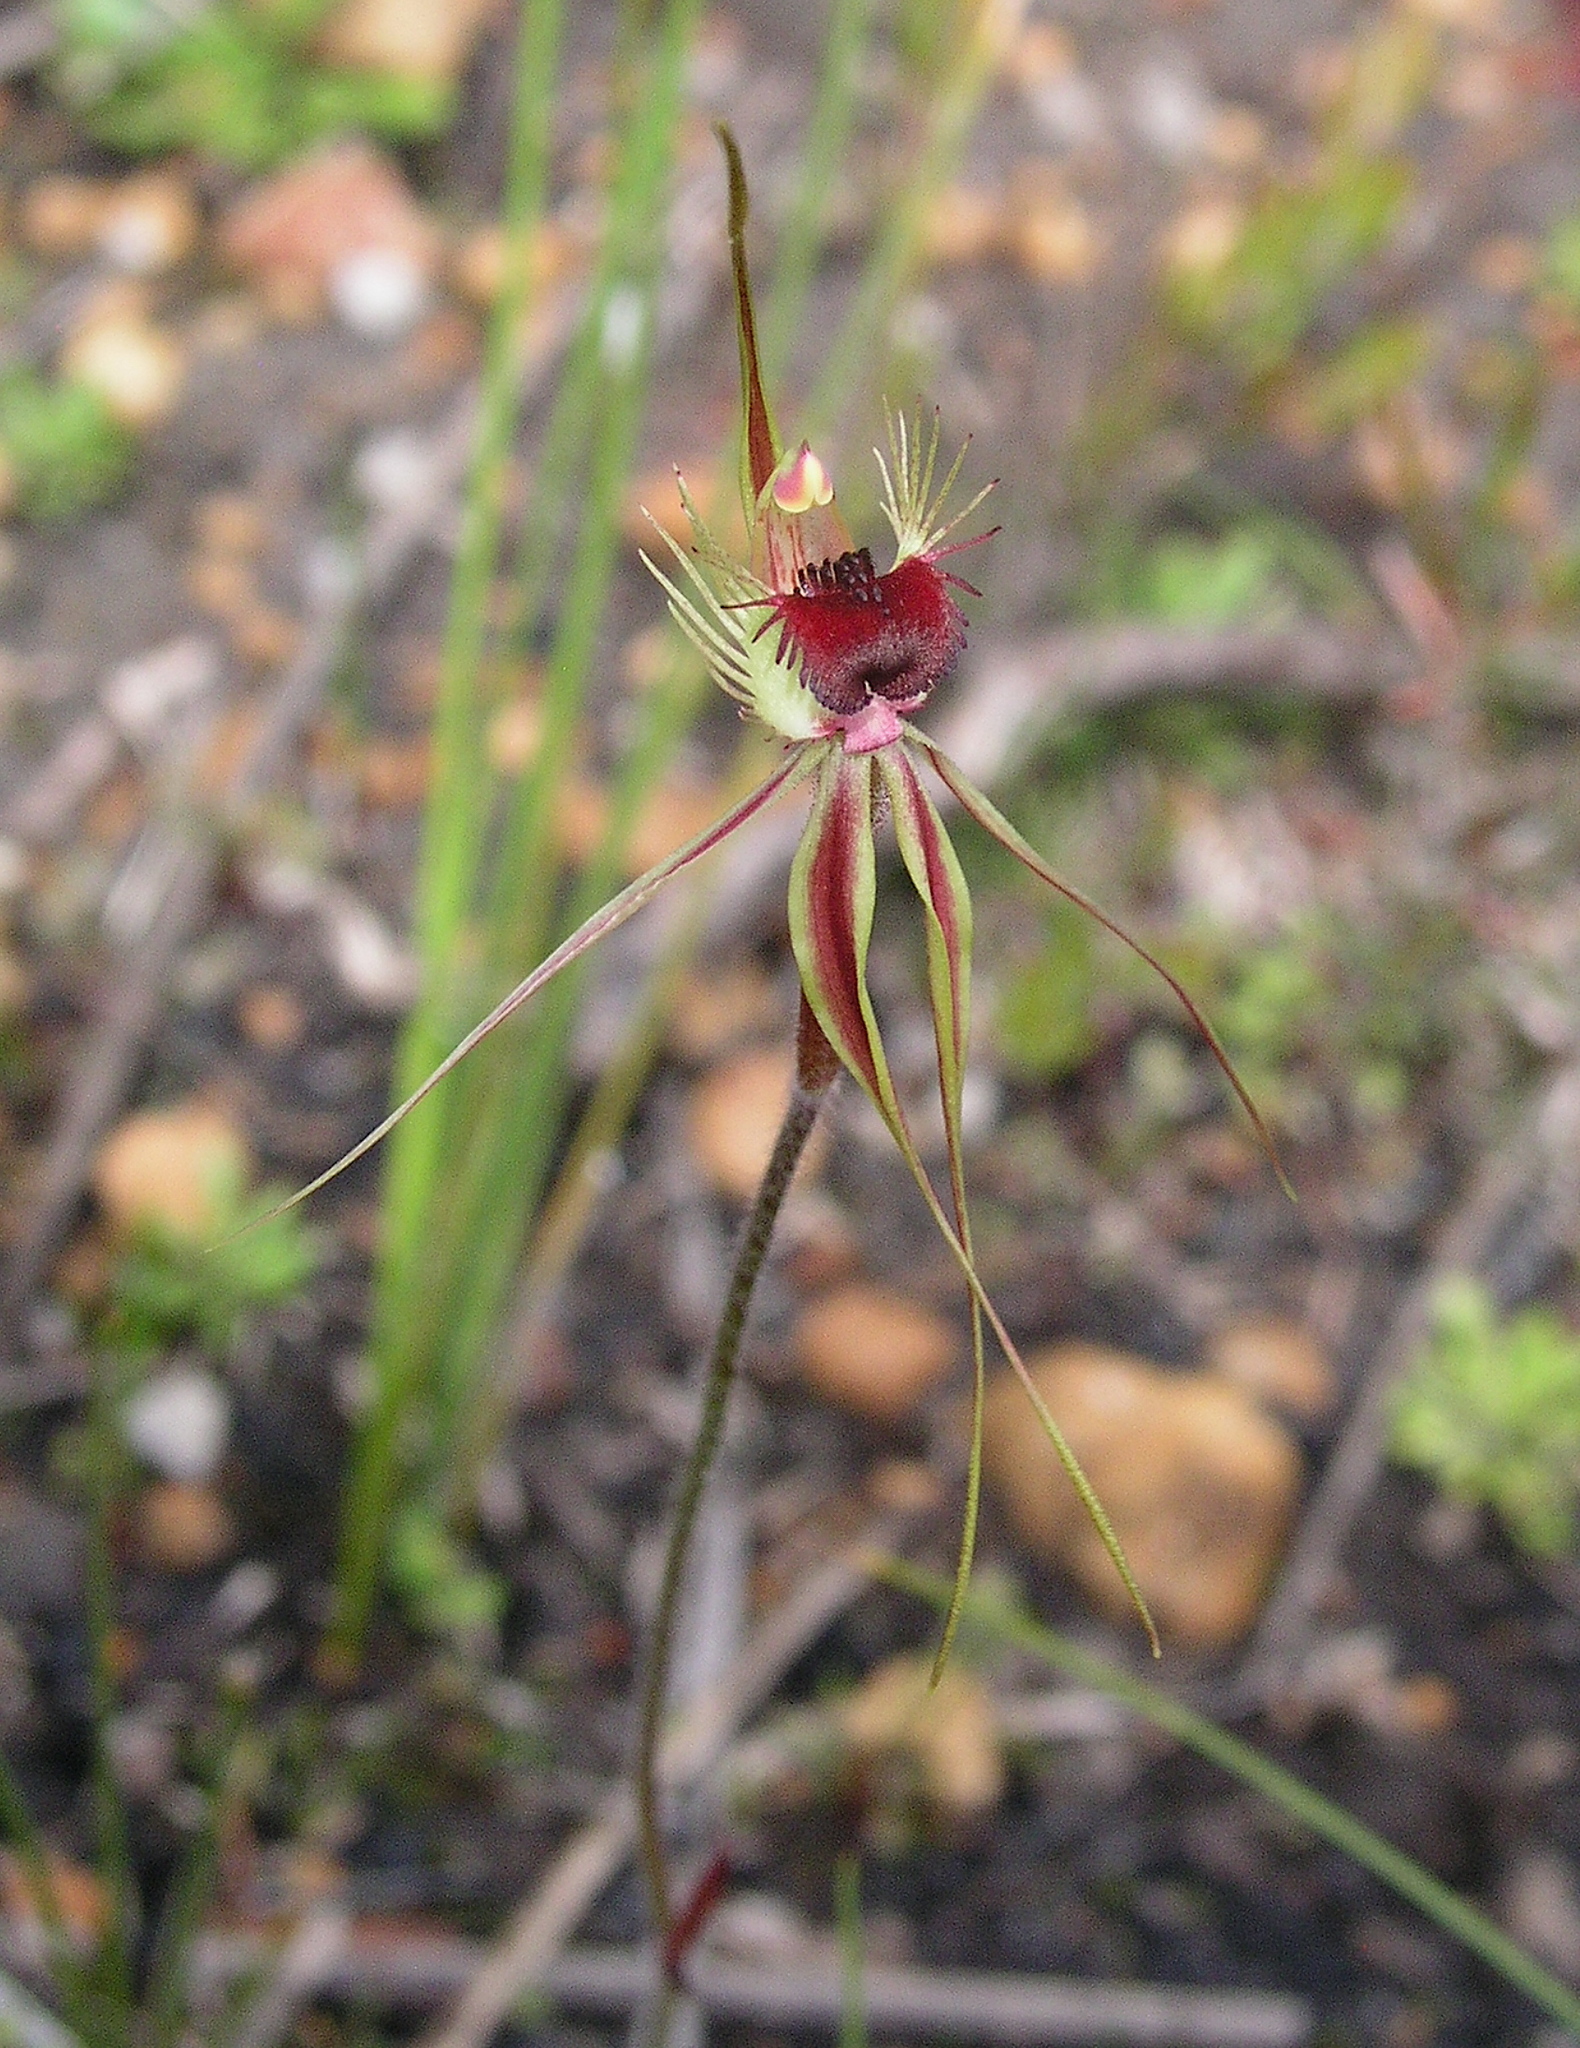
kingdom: Plantae
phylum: Tracheophyta
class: Liliopsida
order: Asparagales
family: Orchidaceae
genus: Caladenia
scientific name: Caladenia radiata
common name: Ray spider orchid
